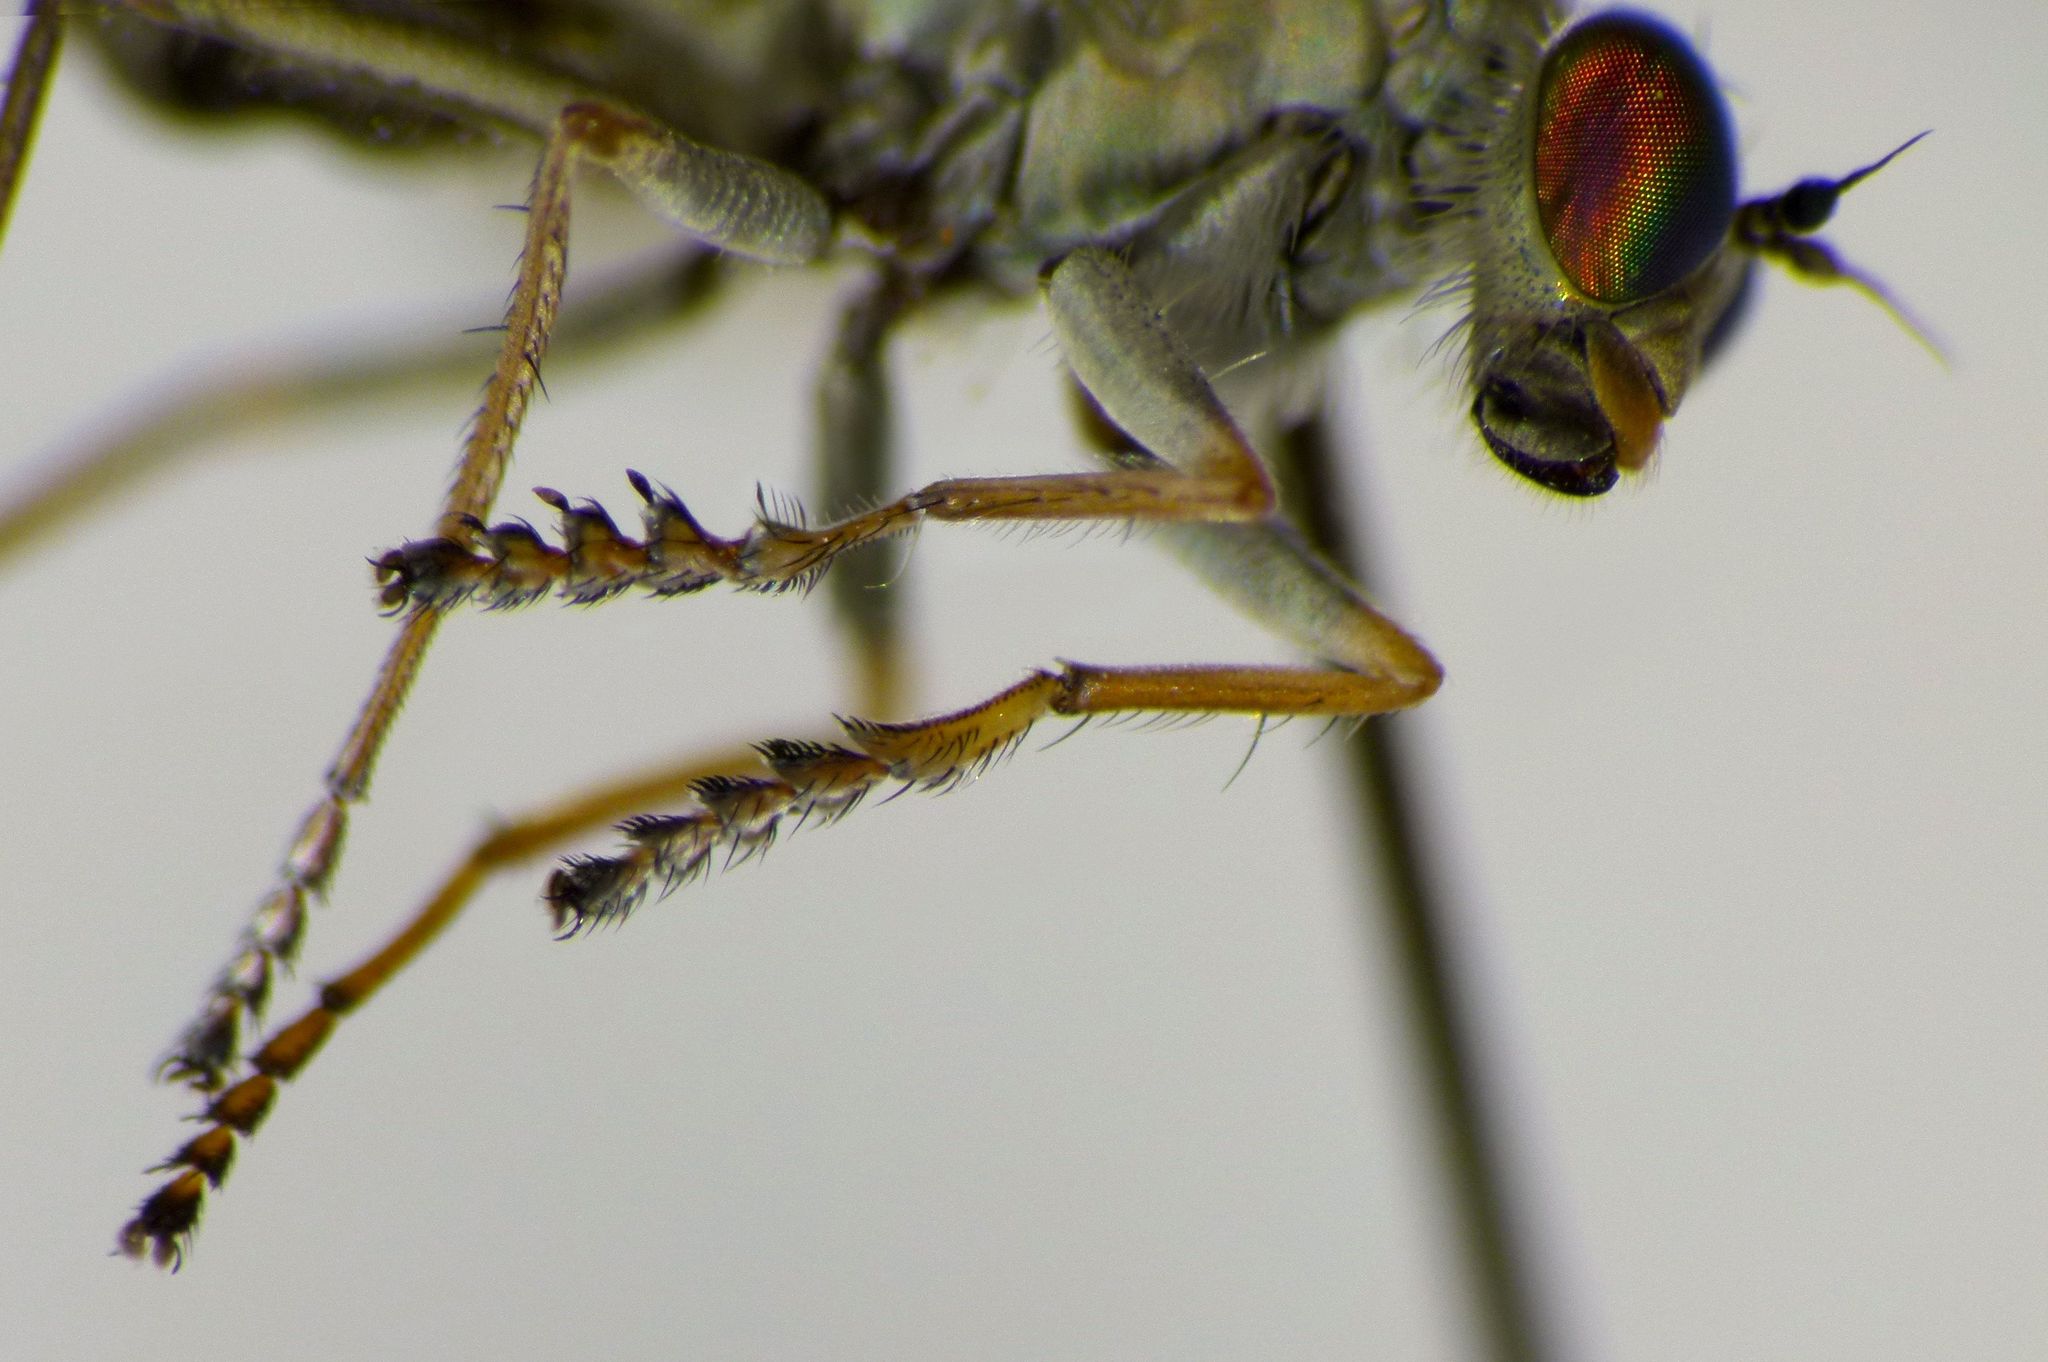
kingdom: Animalia
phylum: Arthropoda
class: Insecta
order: Diptera
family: Dolichopodidae
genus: Scorpiurus
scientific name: Scorpiurus aramoana
